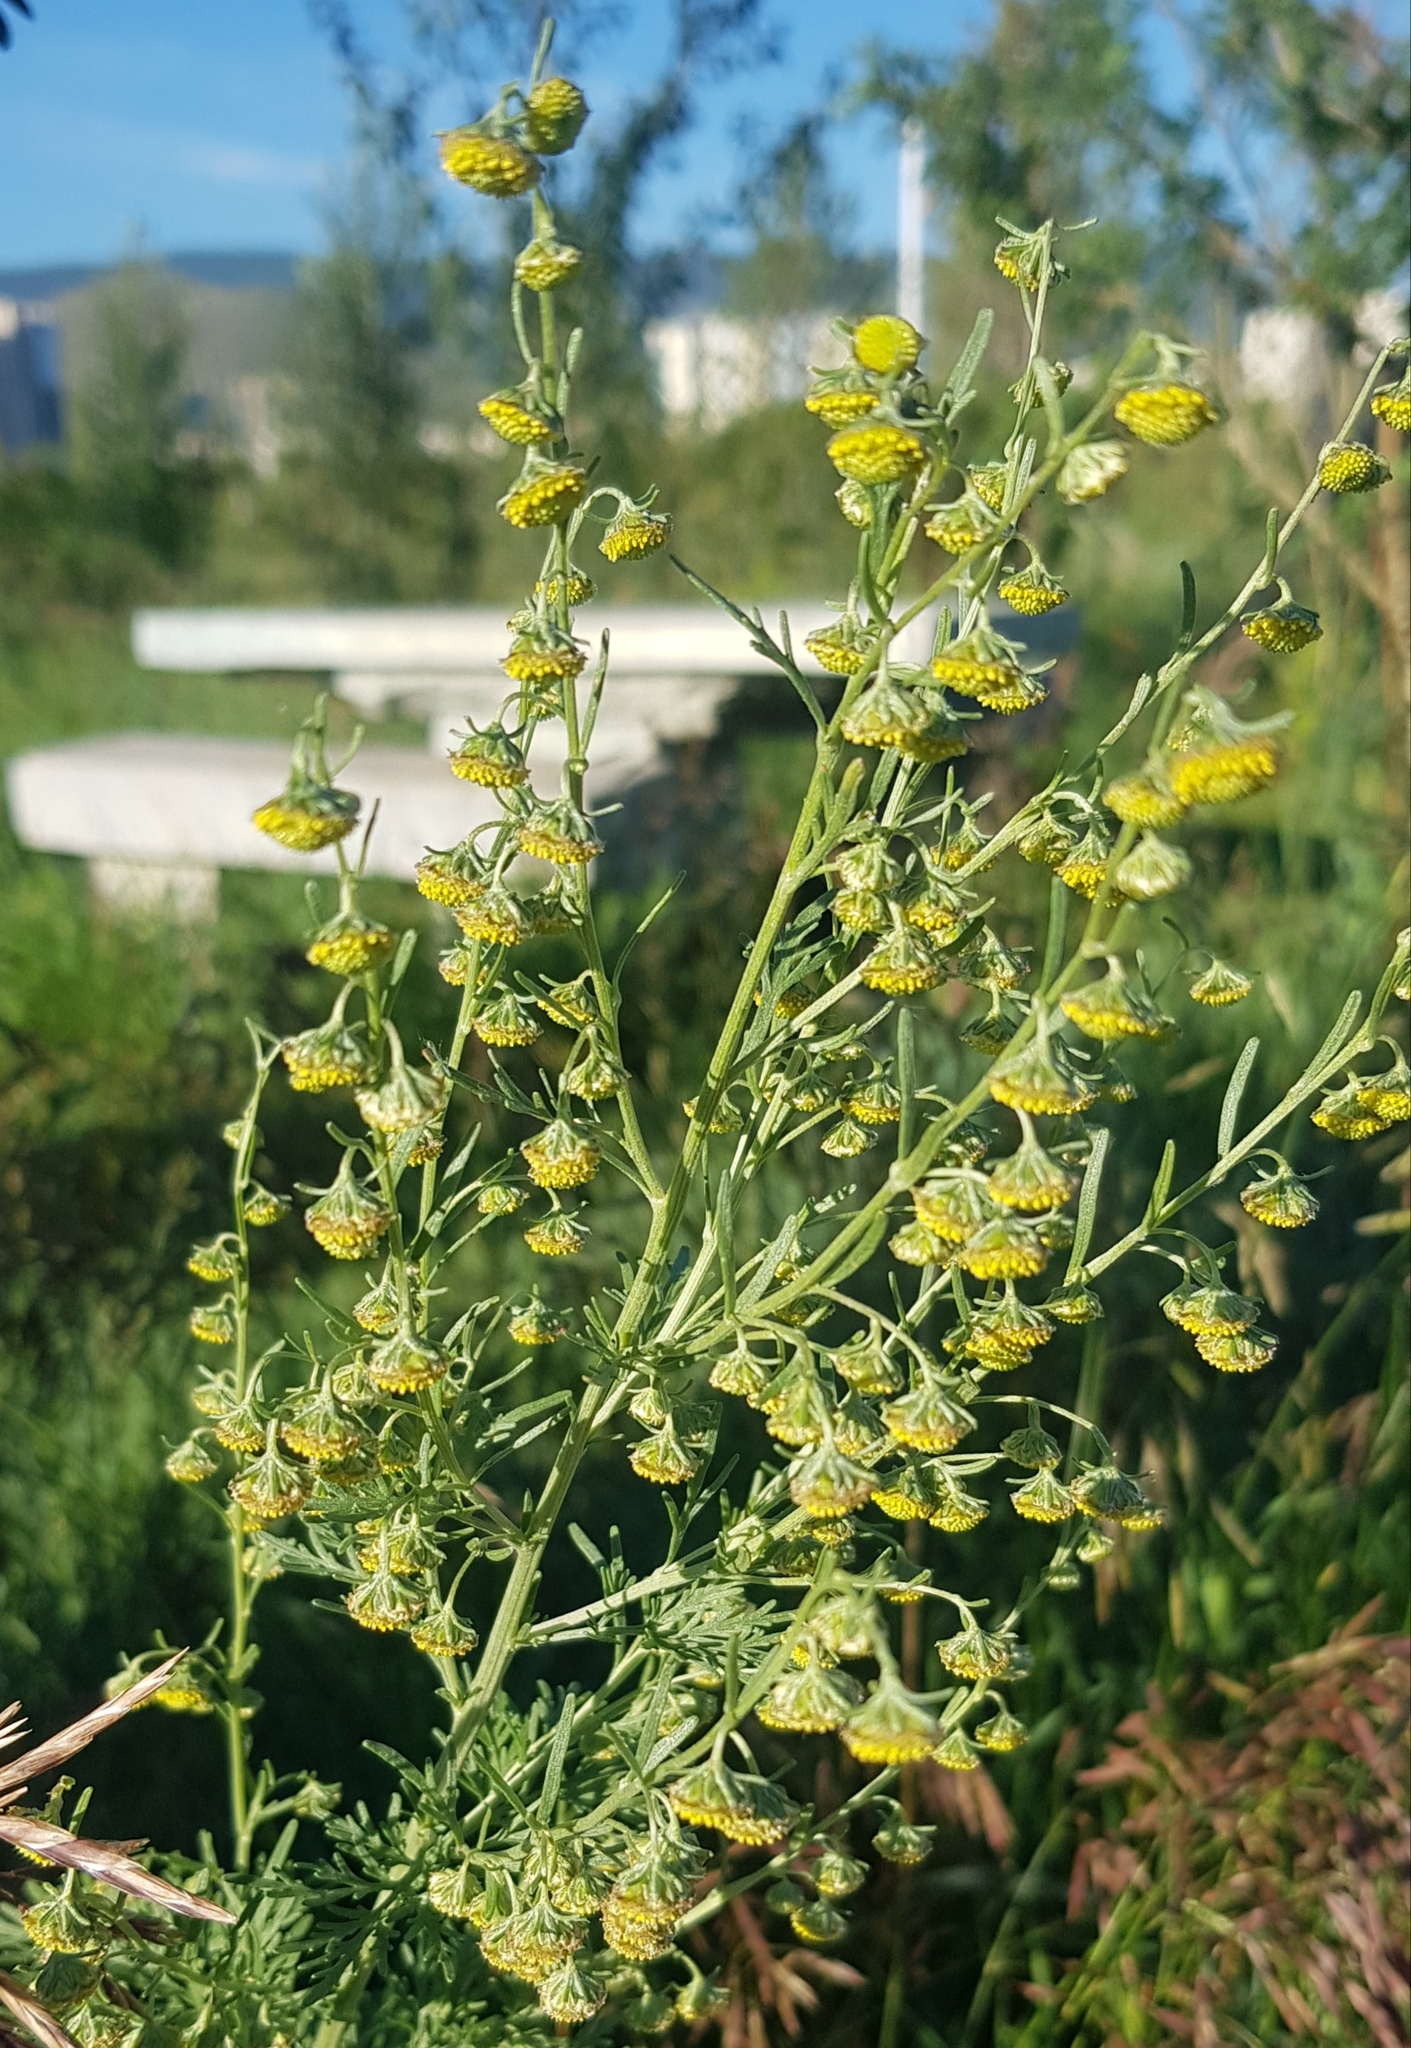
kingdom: Plantae
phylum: Tracheophyta
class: Magnoliopsida
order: Asterales
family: Asteraceae
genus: Artemisia
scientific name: Artemisia macrocephala
